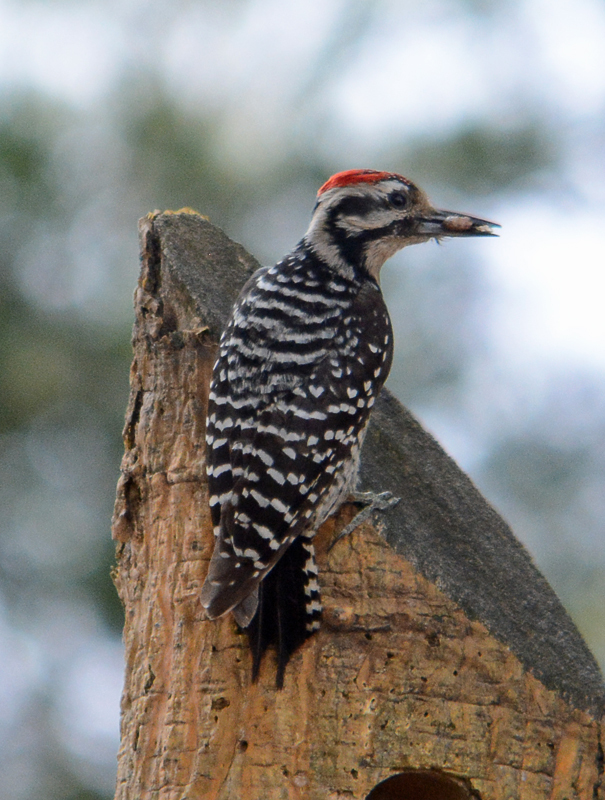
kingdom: Animalia
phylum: Chordata
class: Aves
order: Piciformes
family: Picidae
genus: Dryobates
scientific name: Dryobates scalaris
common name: Ladder-backed woodpecker
